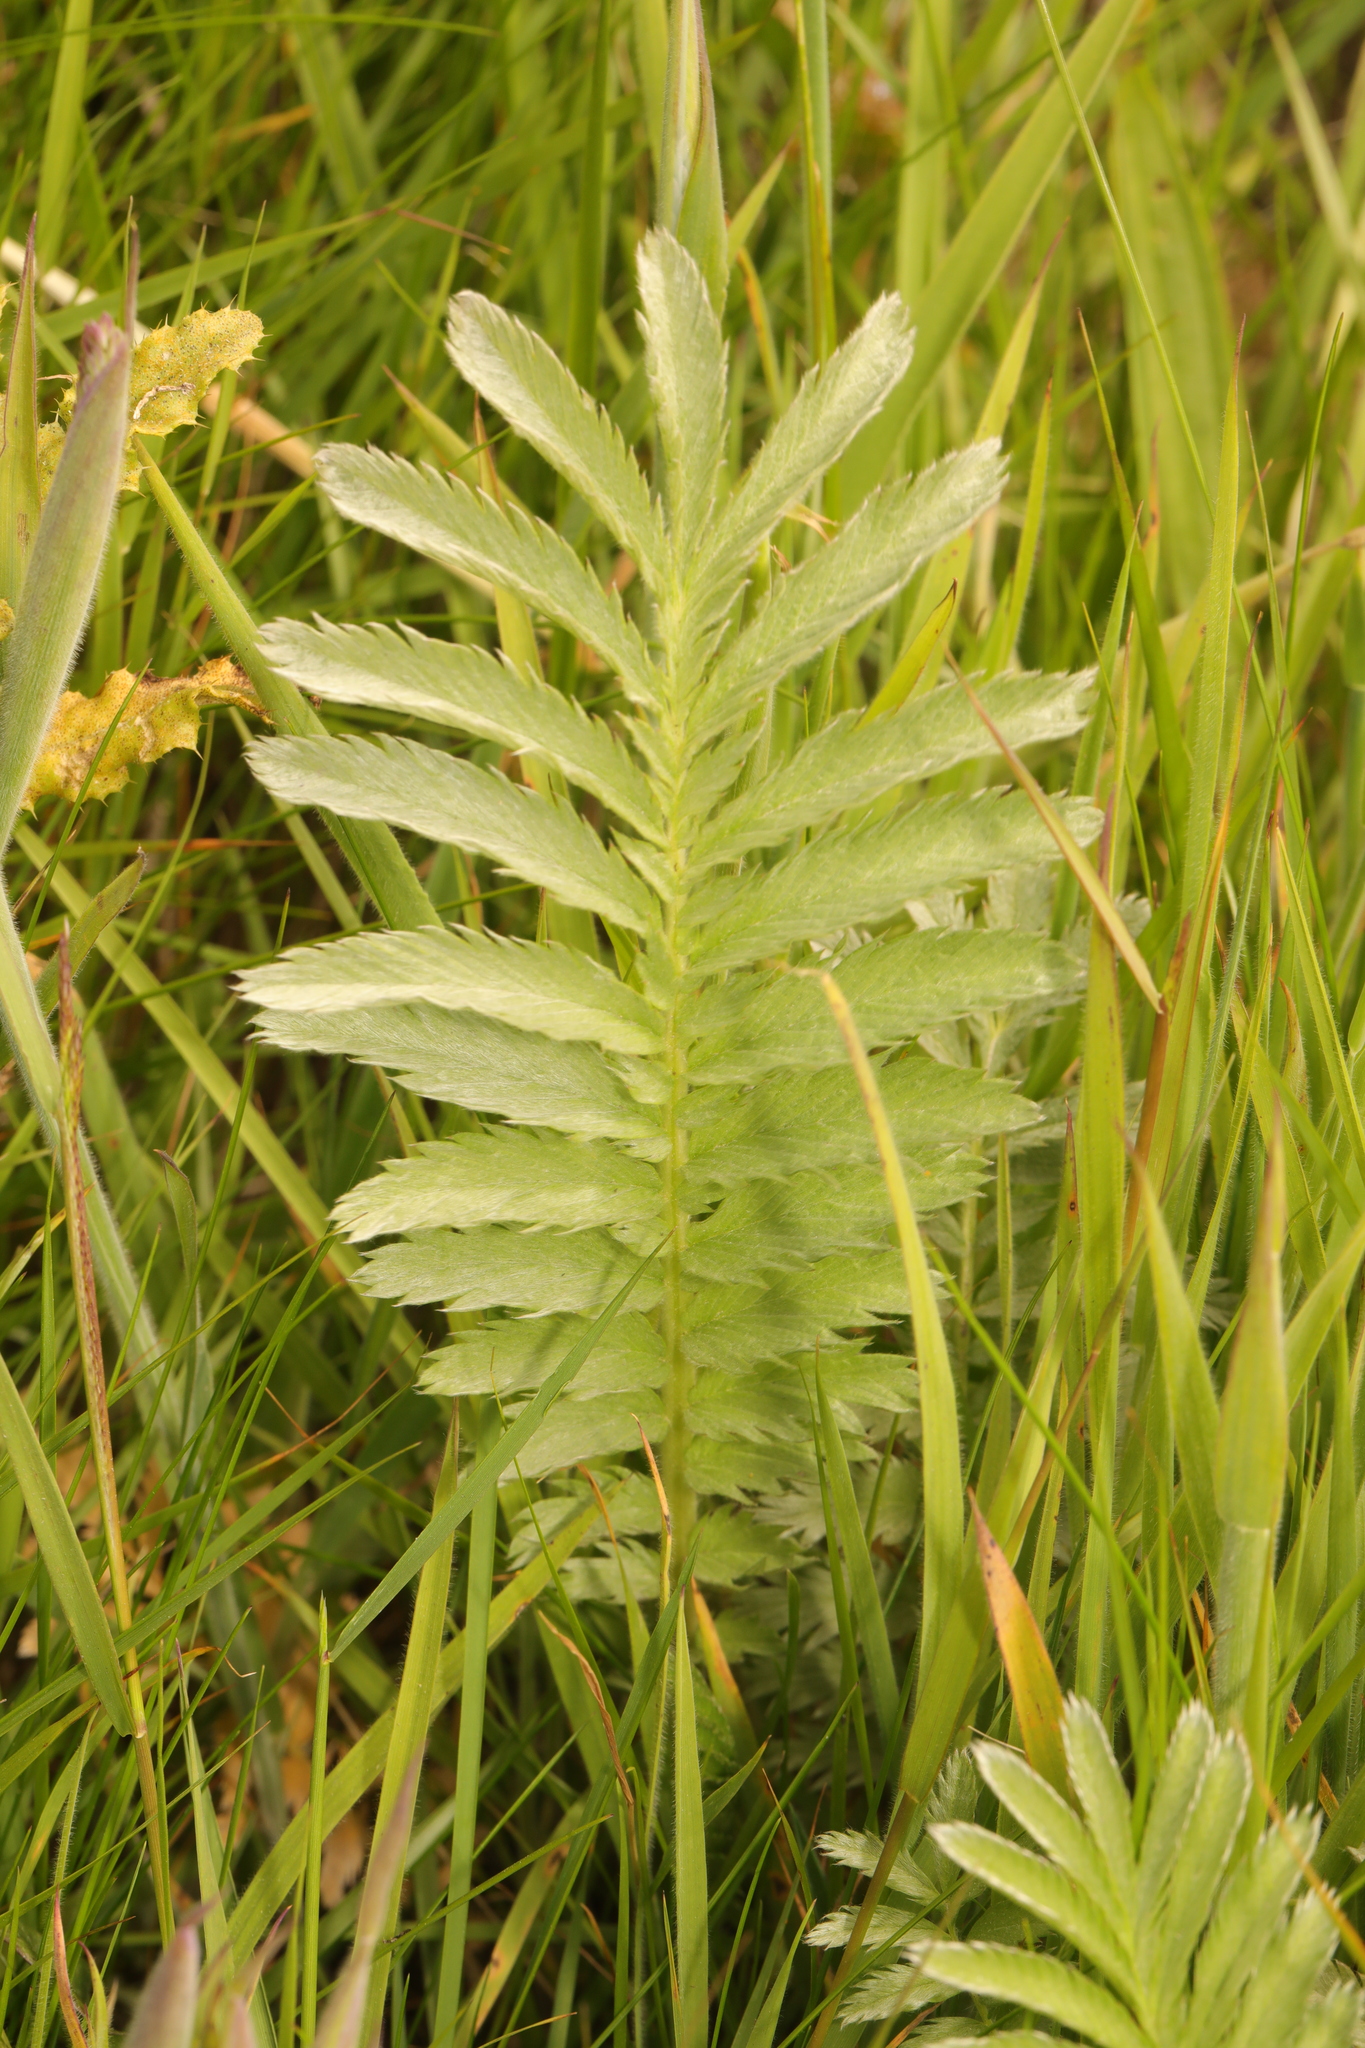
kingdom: Plantae
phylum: Tracheophyta
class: Magnoliopsida
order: Rosales
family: Rosaceae
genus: Argentina
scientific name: Argentina anserina
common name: Common silverweed
